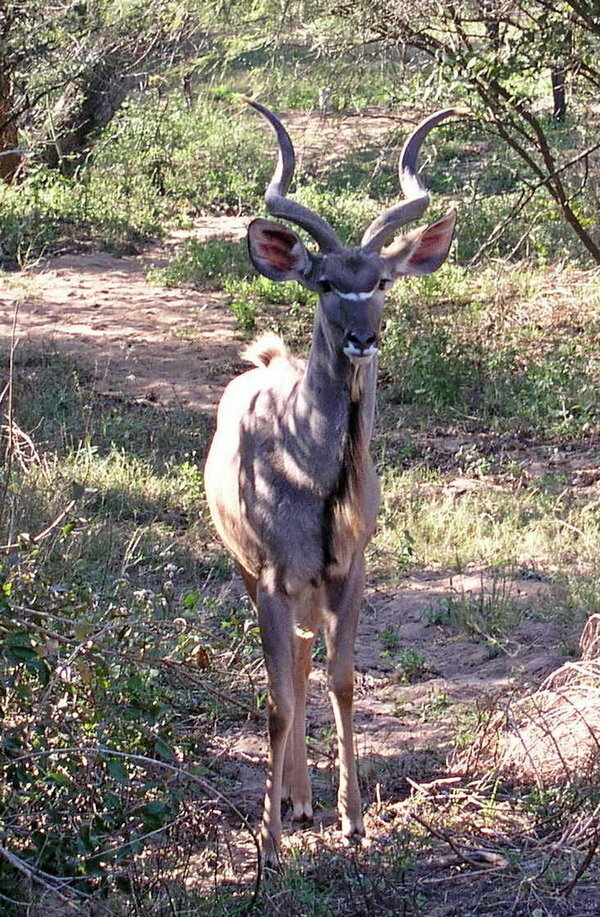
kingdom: Animalia
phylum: Chordata
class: Mammalia
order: Artiodactyla
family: Bovidae
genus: Tragelaphus
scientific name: Tragelaphus strepsiceros
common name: Greater kudu
